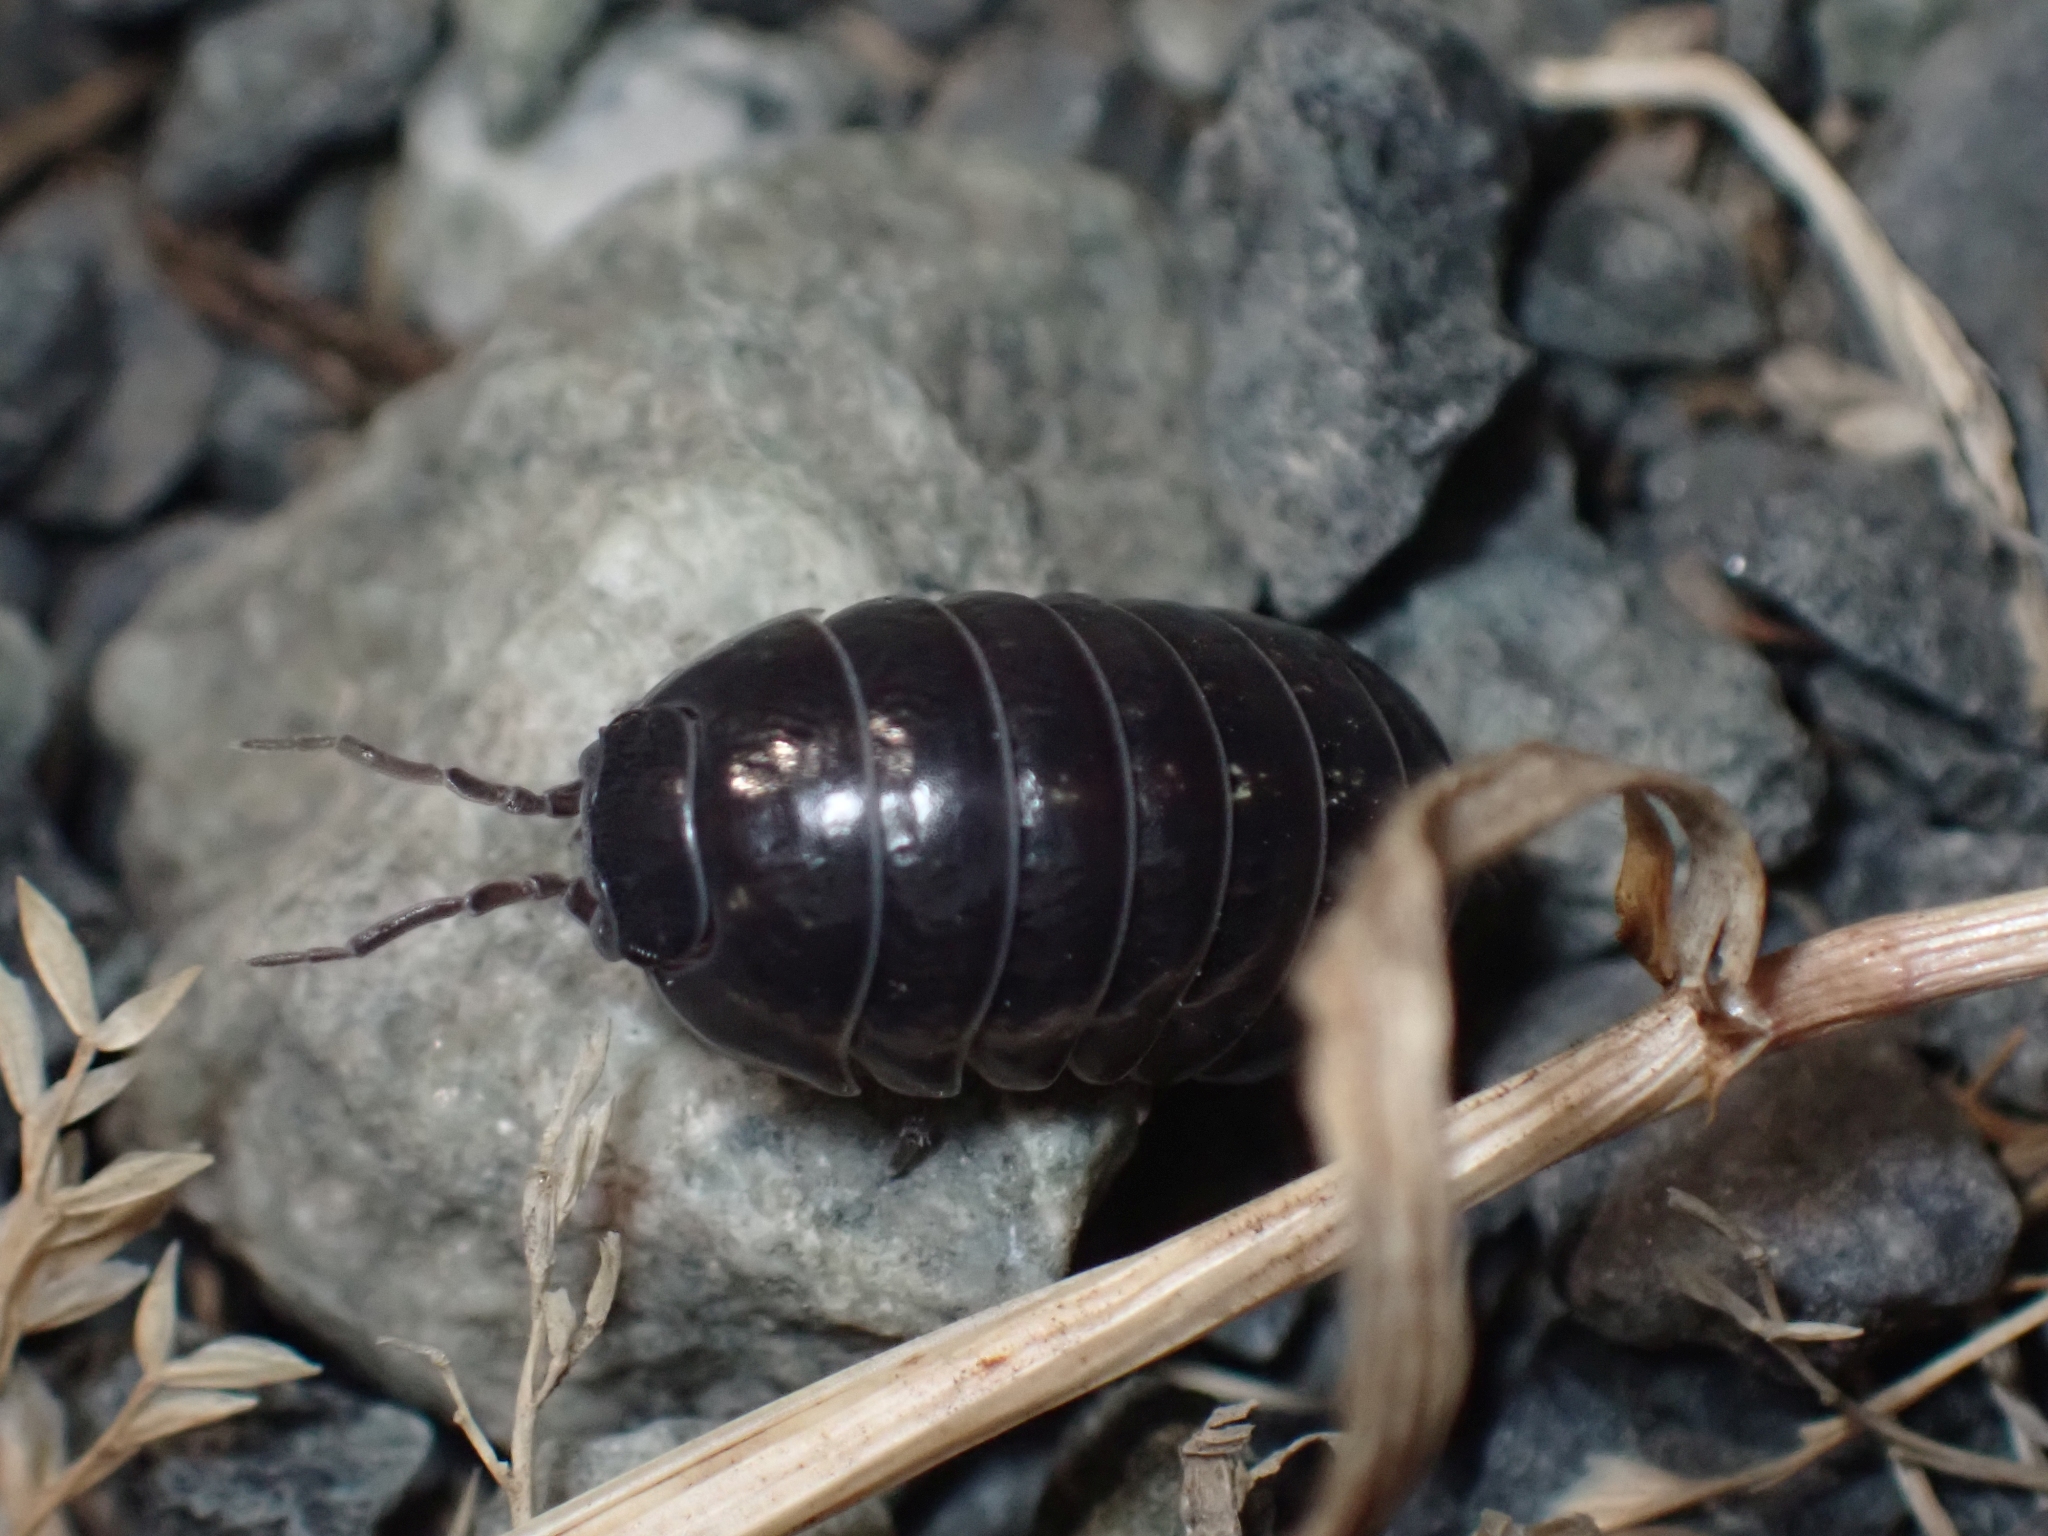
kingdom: Animalia
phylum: Arthropoda
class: Malacostraca
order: Isopoda
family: Armadillidiidae
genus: Armadillidium
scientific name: Armadillidium vulgare
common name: Common pill woodlouse
